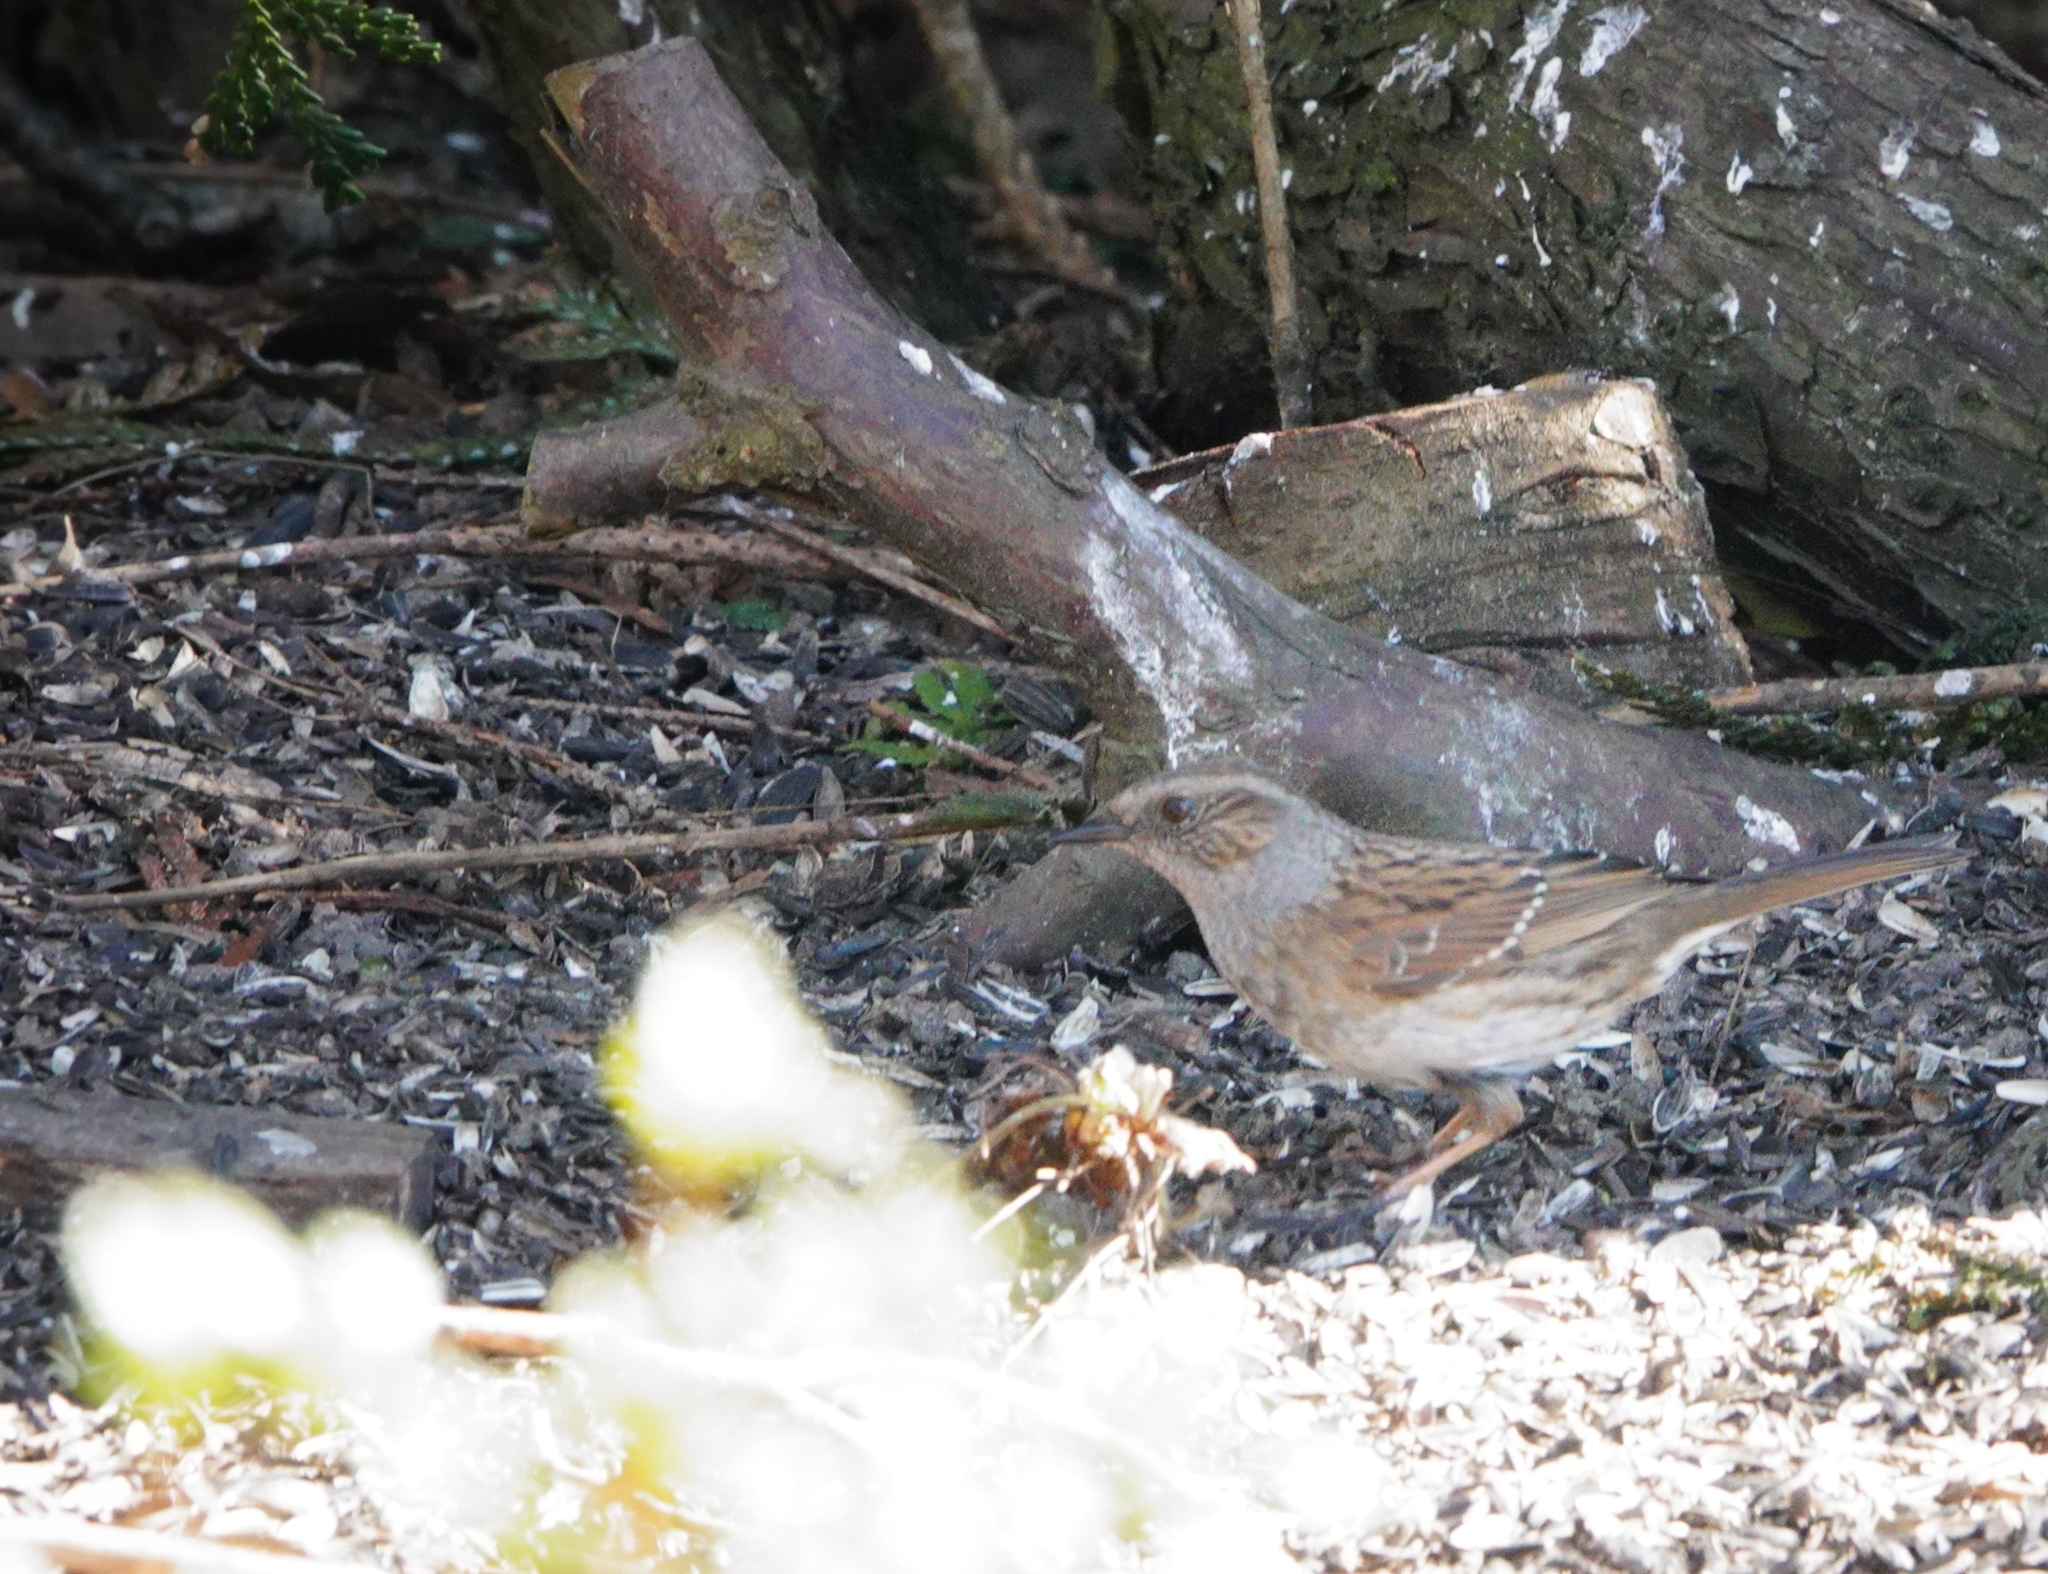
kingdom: Animalia
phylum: Chordata
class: Aves
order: Passeriformes
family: Prunellidae
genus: Prunella
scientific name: Prunella modularis
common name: Dunnock
